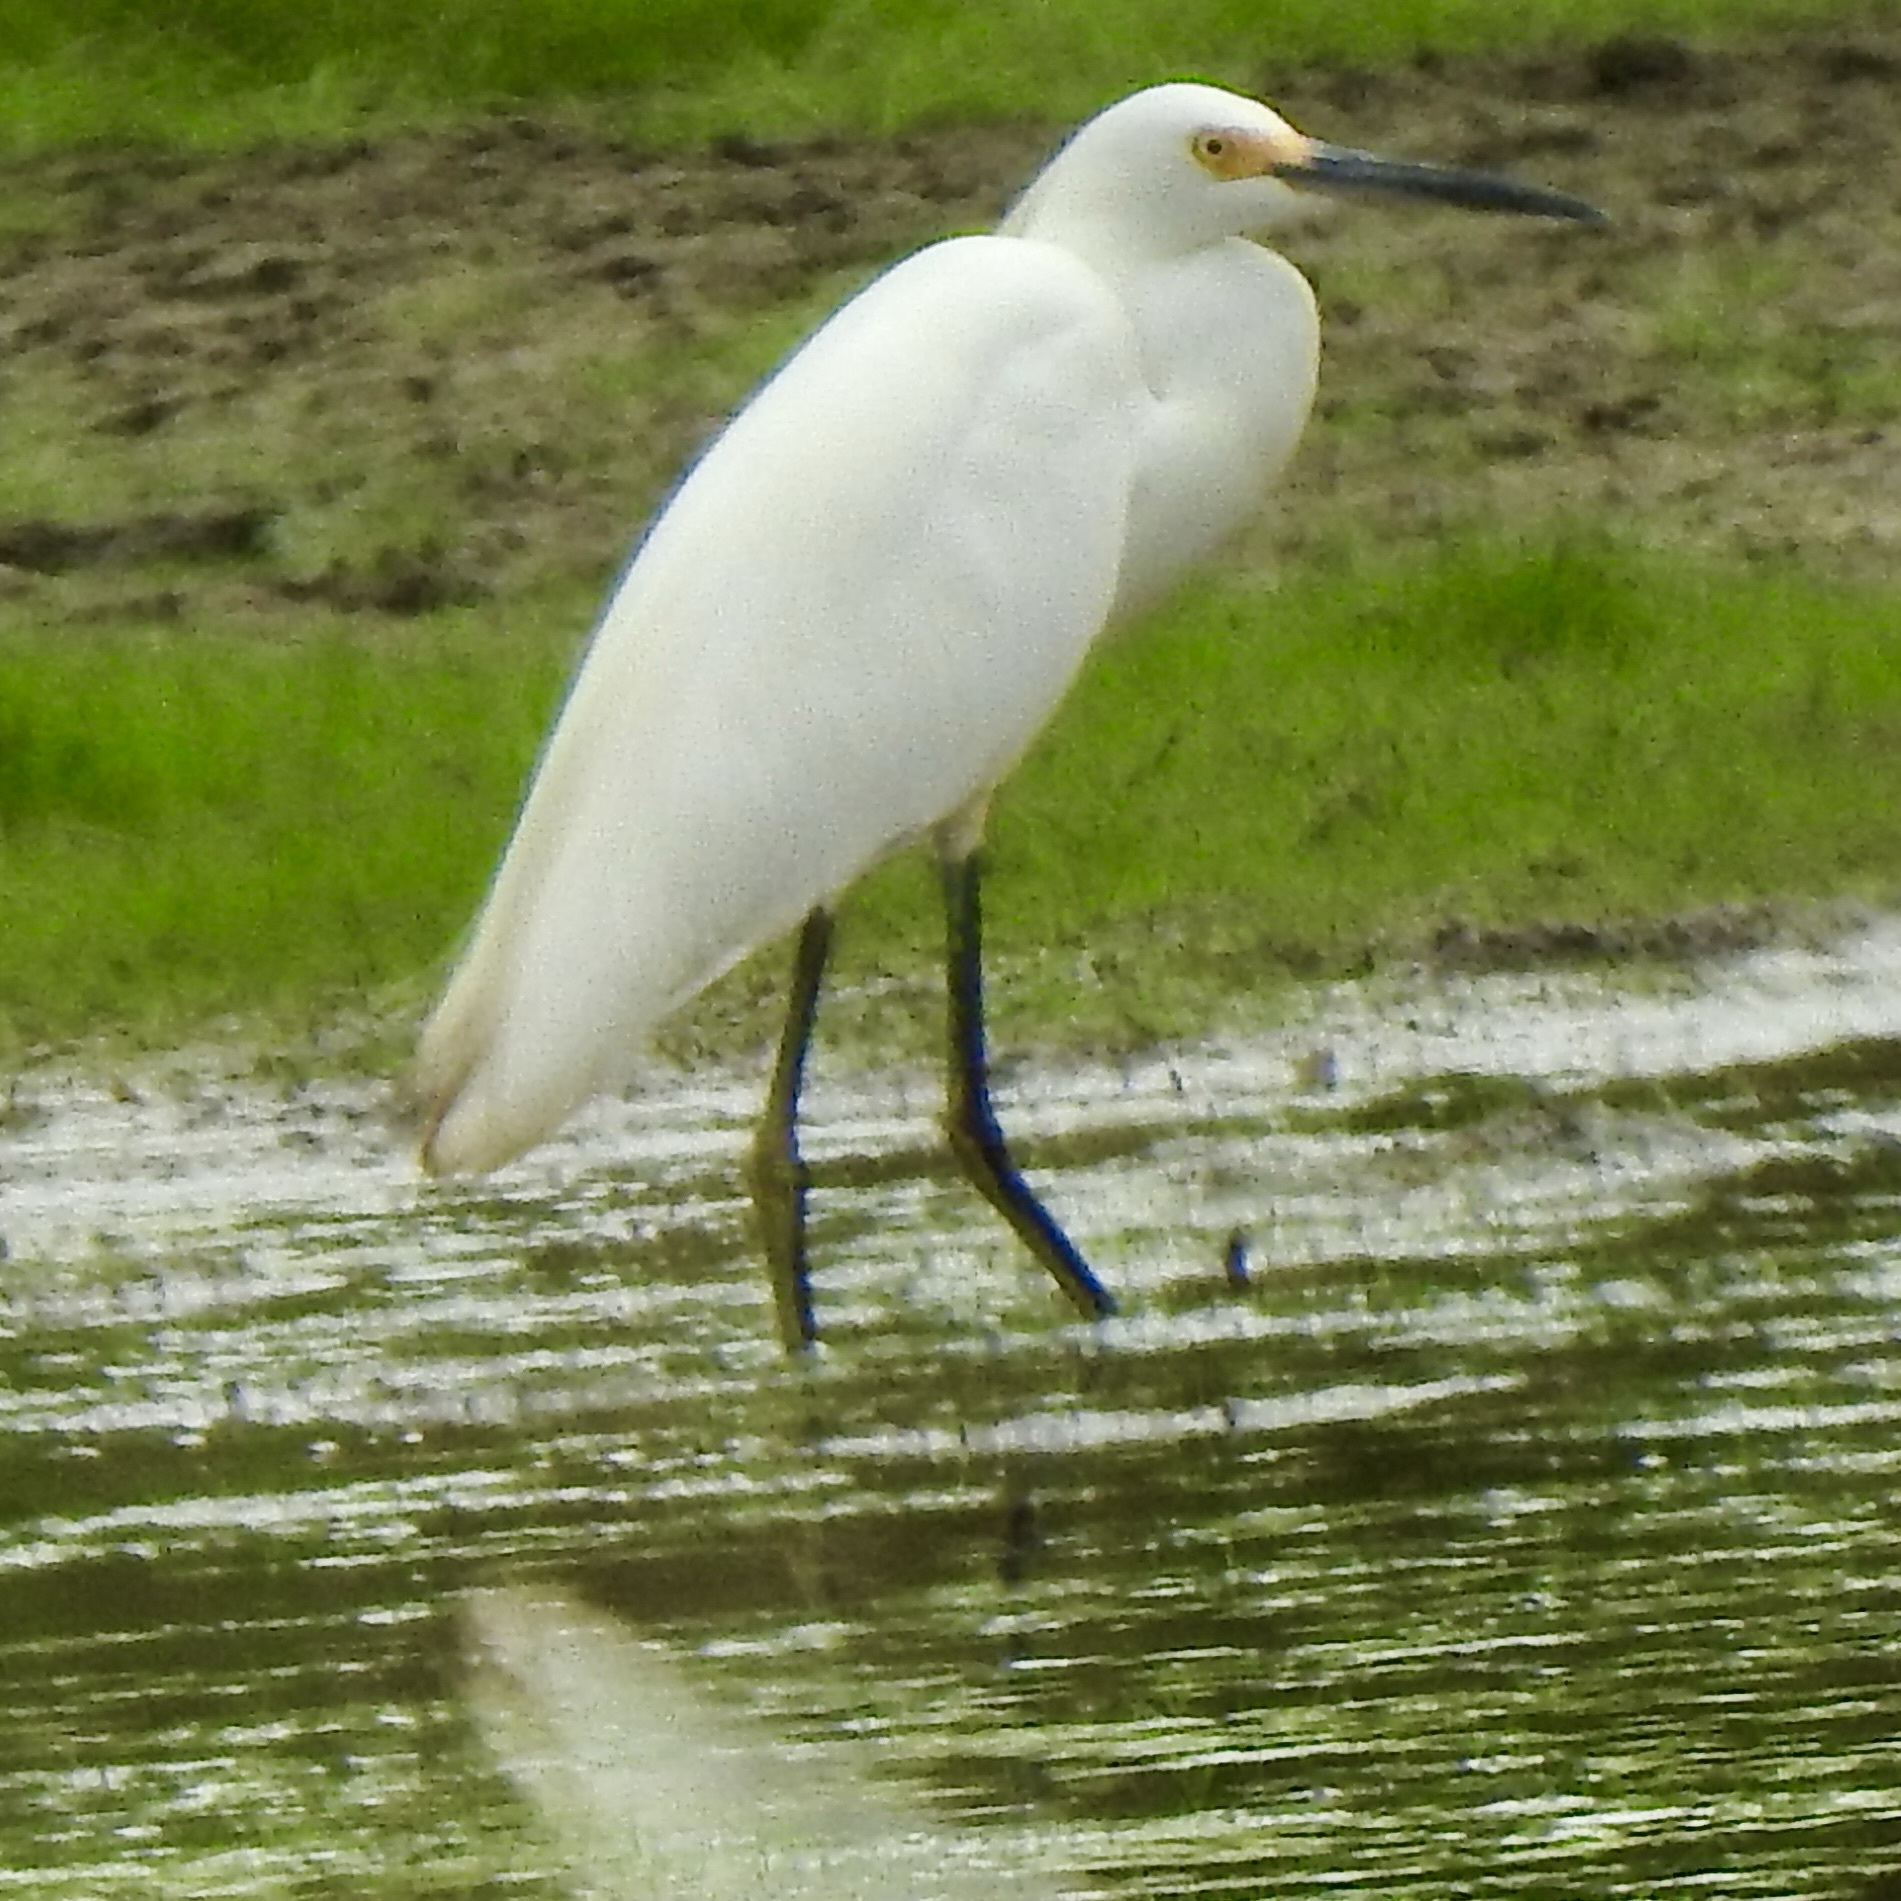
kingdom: Animalia
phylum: Chordata
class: Aves
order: Pelecaniformes
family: Ardeidae
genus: Egretta
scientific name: Egretta thula
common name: Snowy egret
